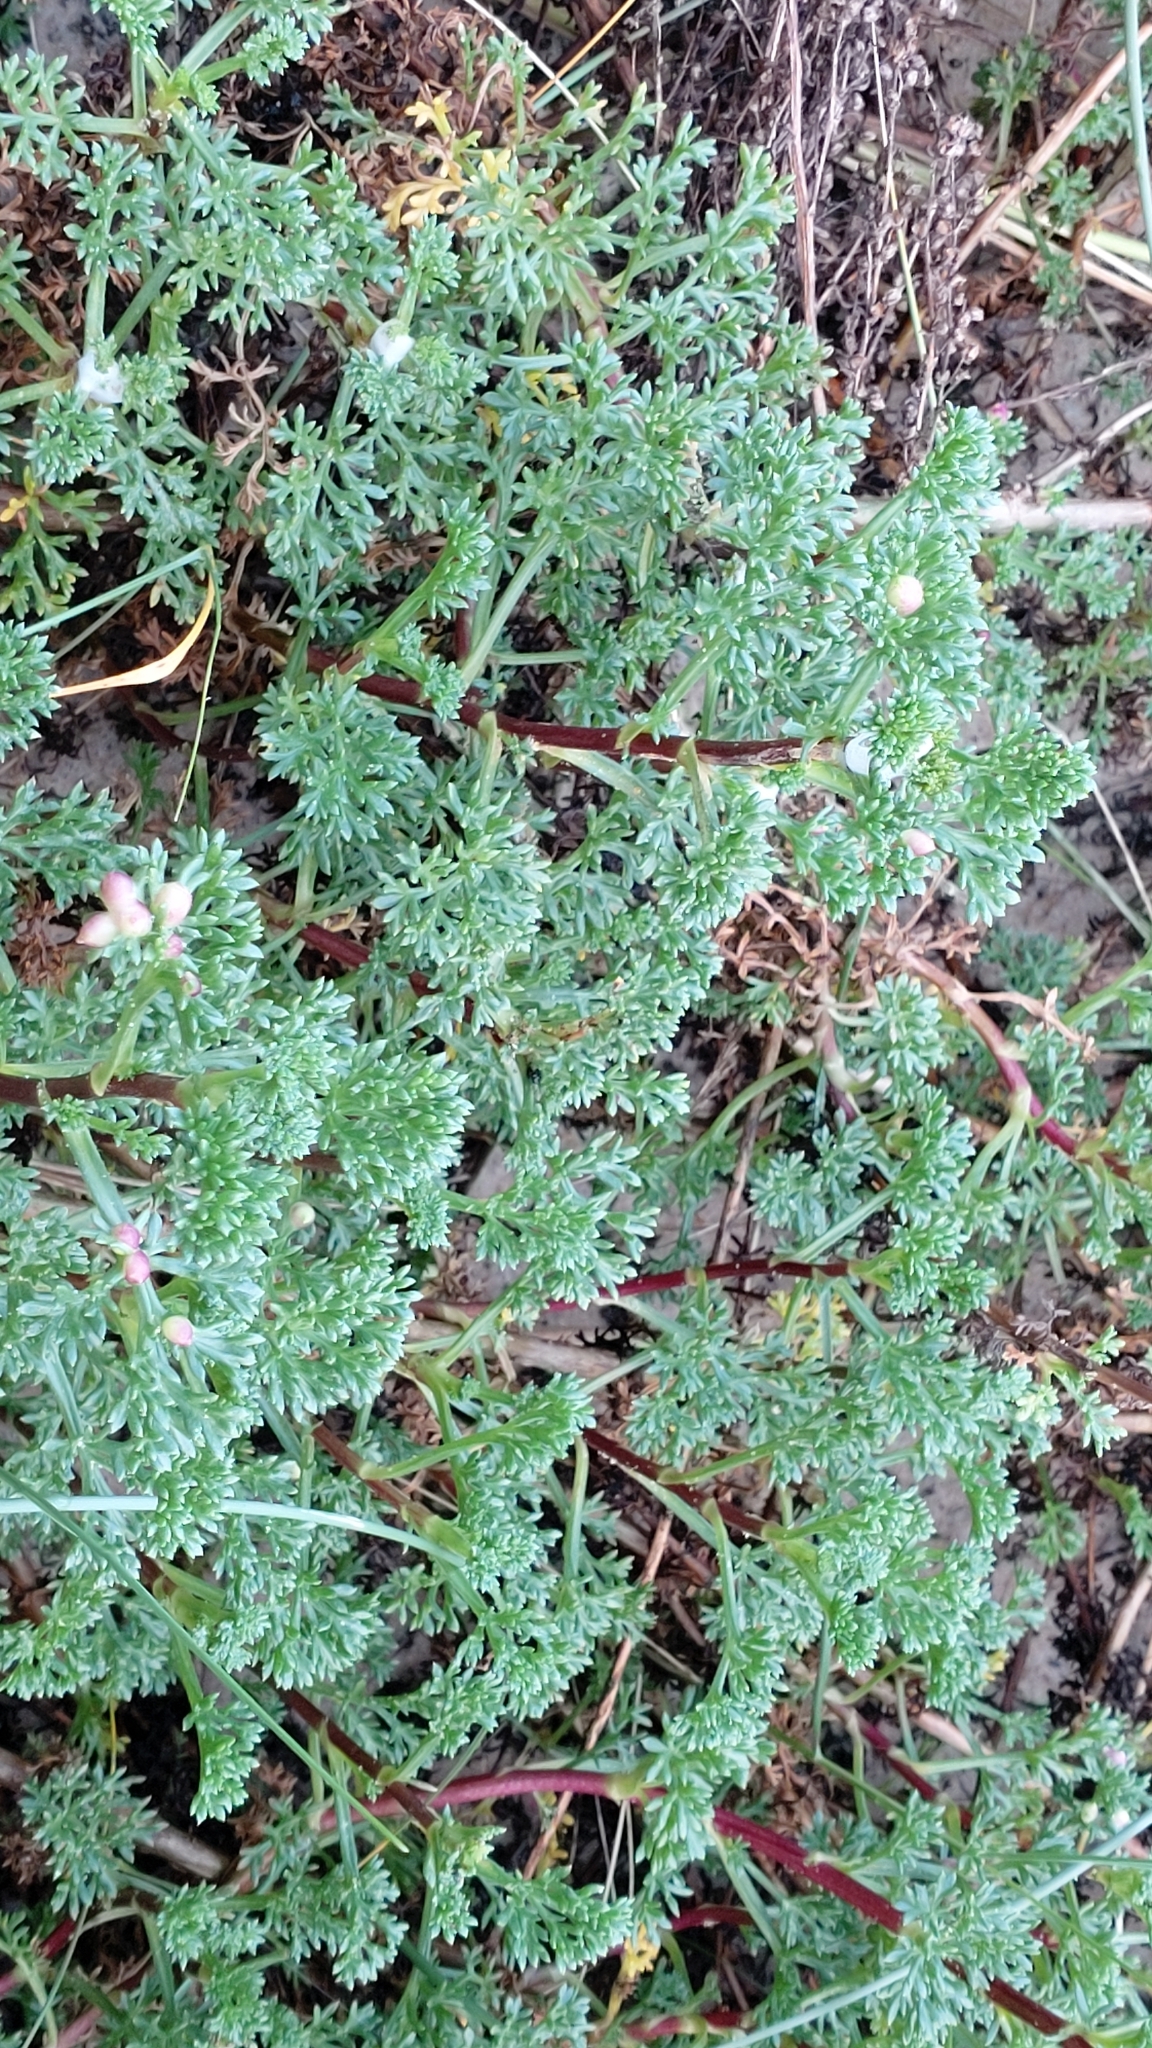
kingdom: Plantae
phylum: Tracheophyta
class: Magnoliopsida
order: Asterales
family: Asteraceae
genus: Artemisia
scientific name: Artemisia campestris
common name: Field wormwood
